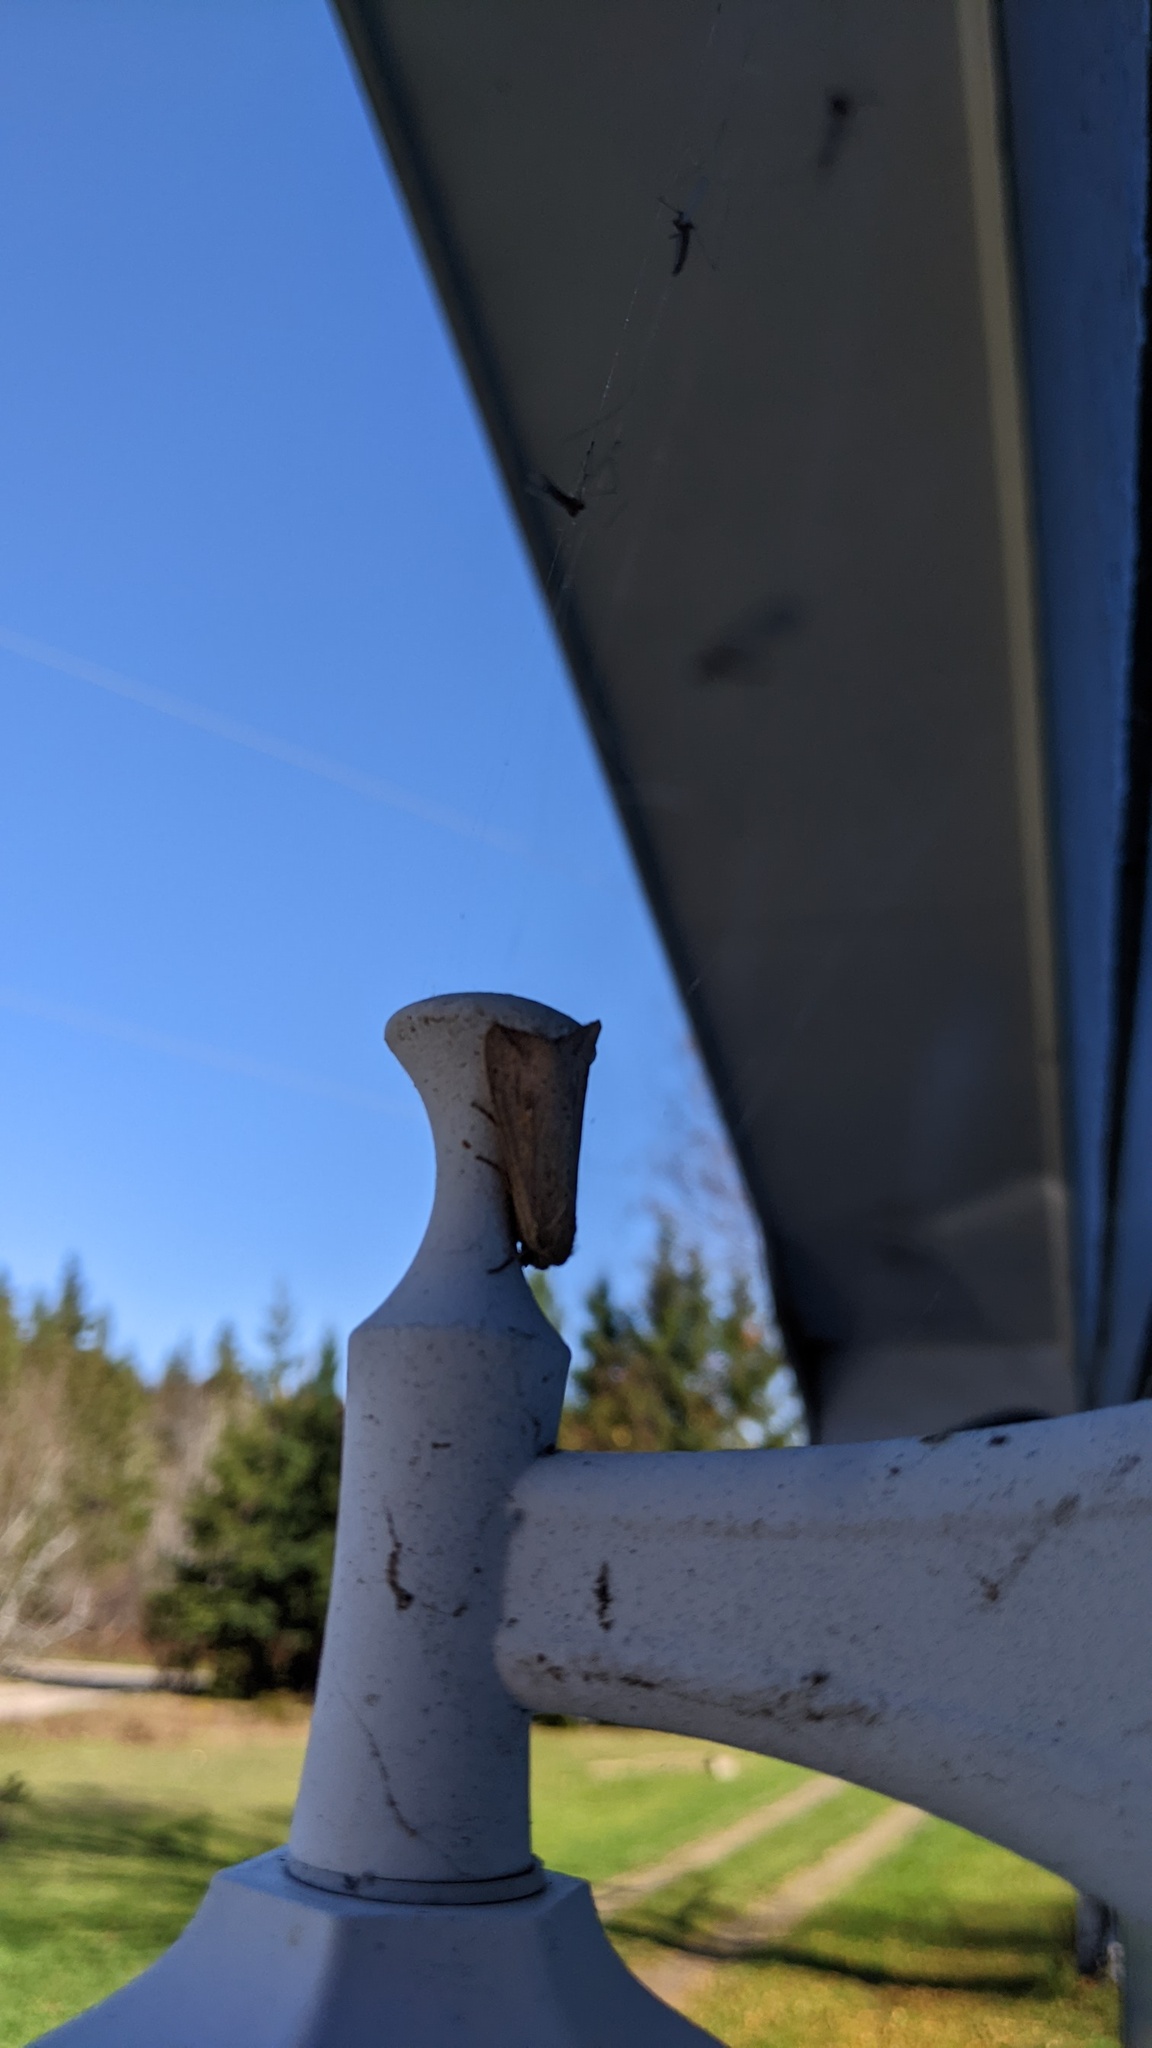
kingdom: Animalia
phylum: Arthropoda
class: Insecta
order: Lepidoptera
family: Noctuidae
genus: Mythimna
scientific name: Mythimna unipuncta
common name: White-speck
